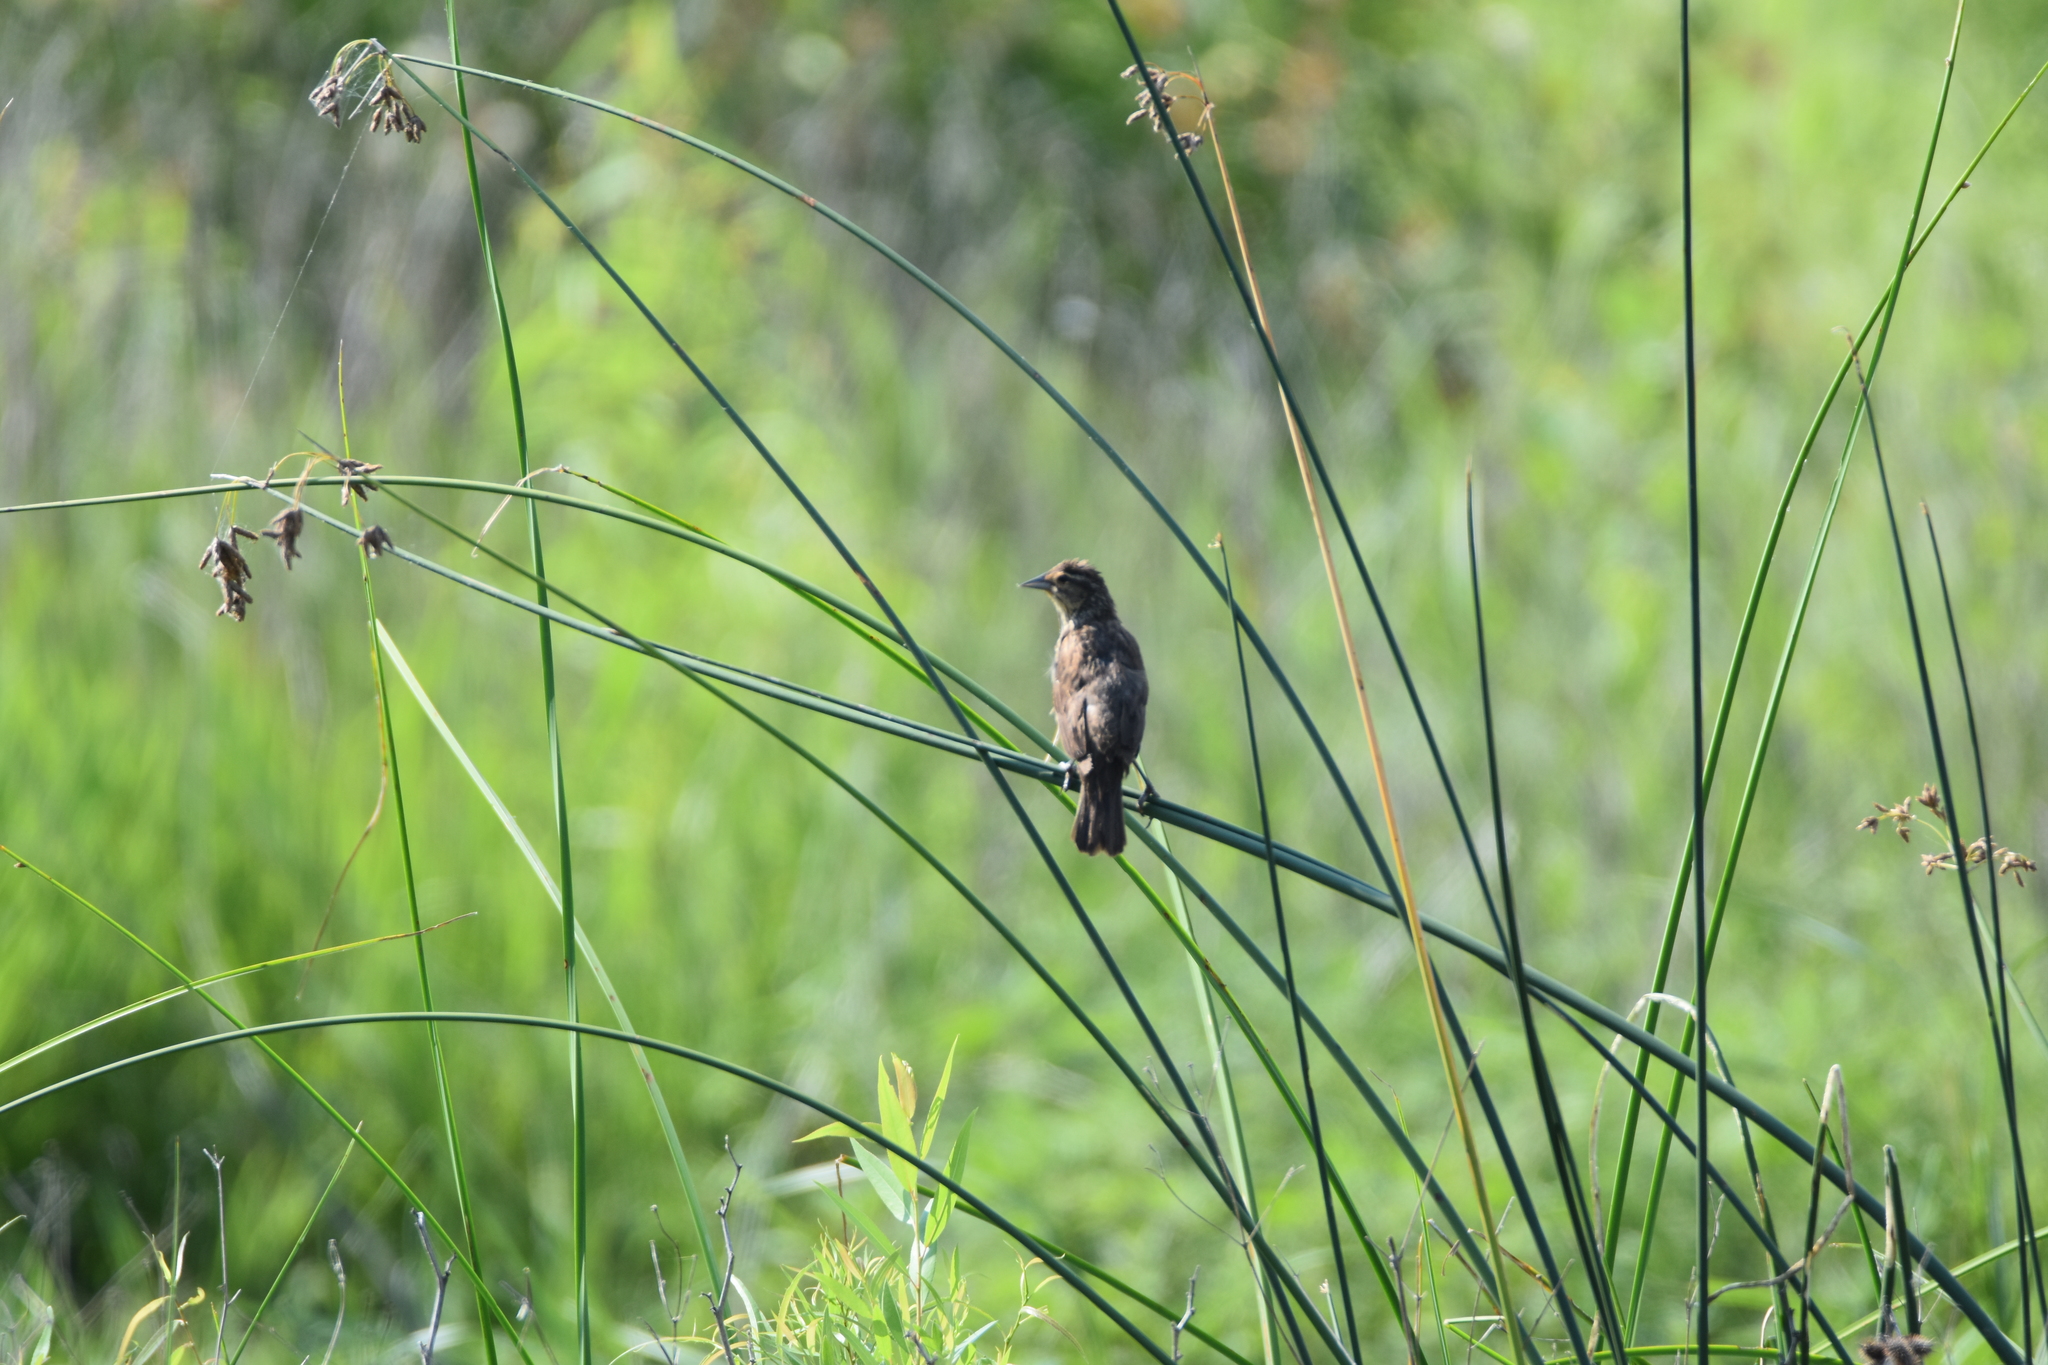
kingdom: Animalia
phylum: Chordata
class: Aves
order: Passeriformes
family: Cardinalidae
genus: Spiza
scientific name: Spiza americana
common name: Dickcissel
